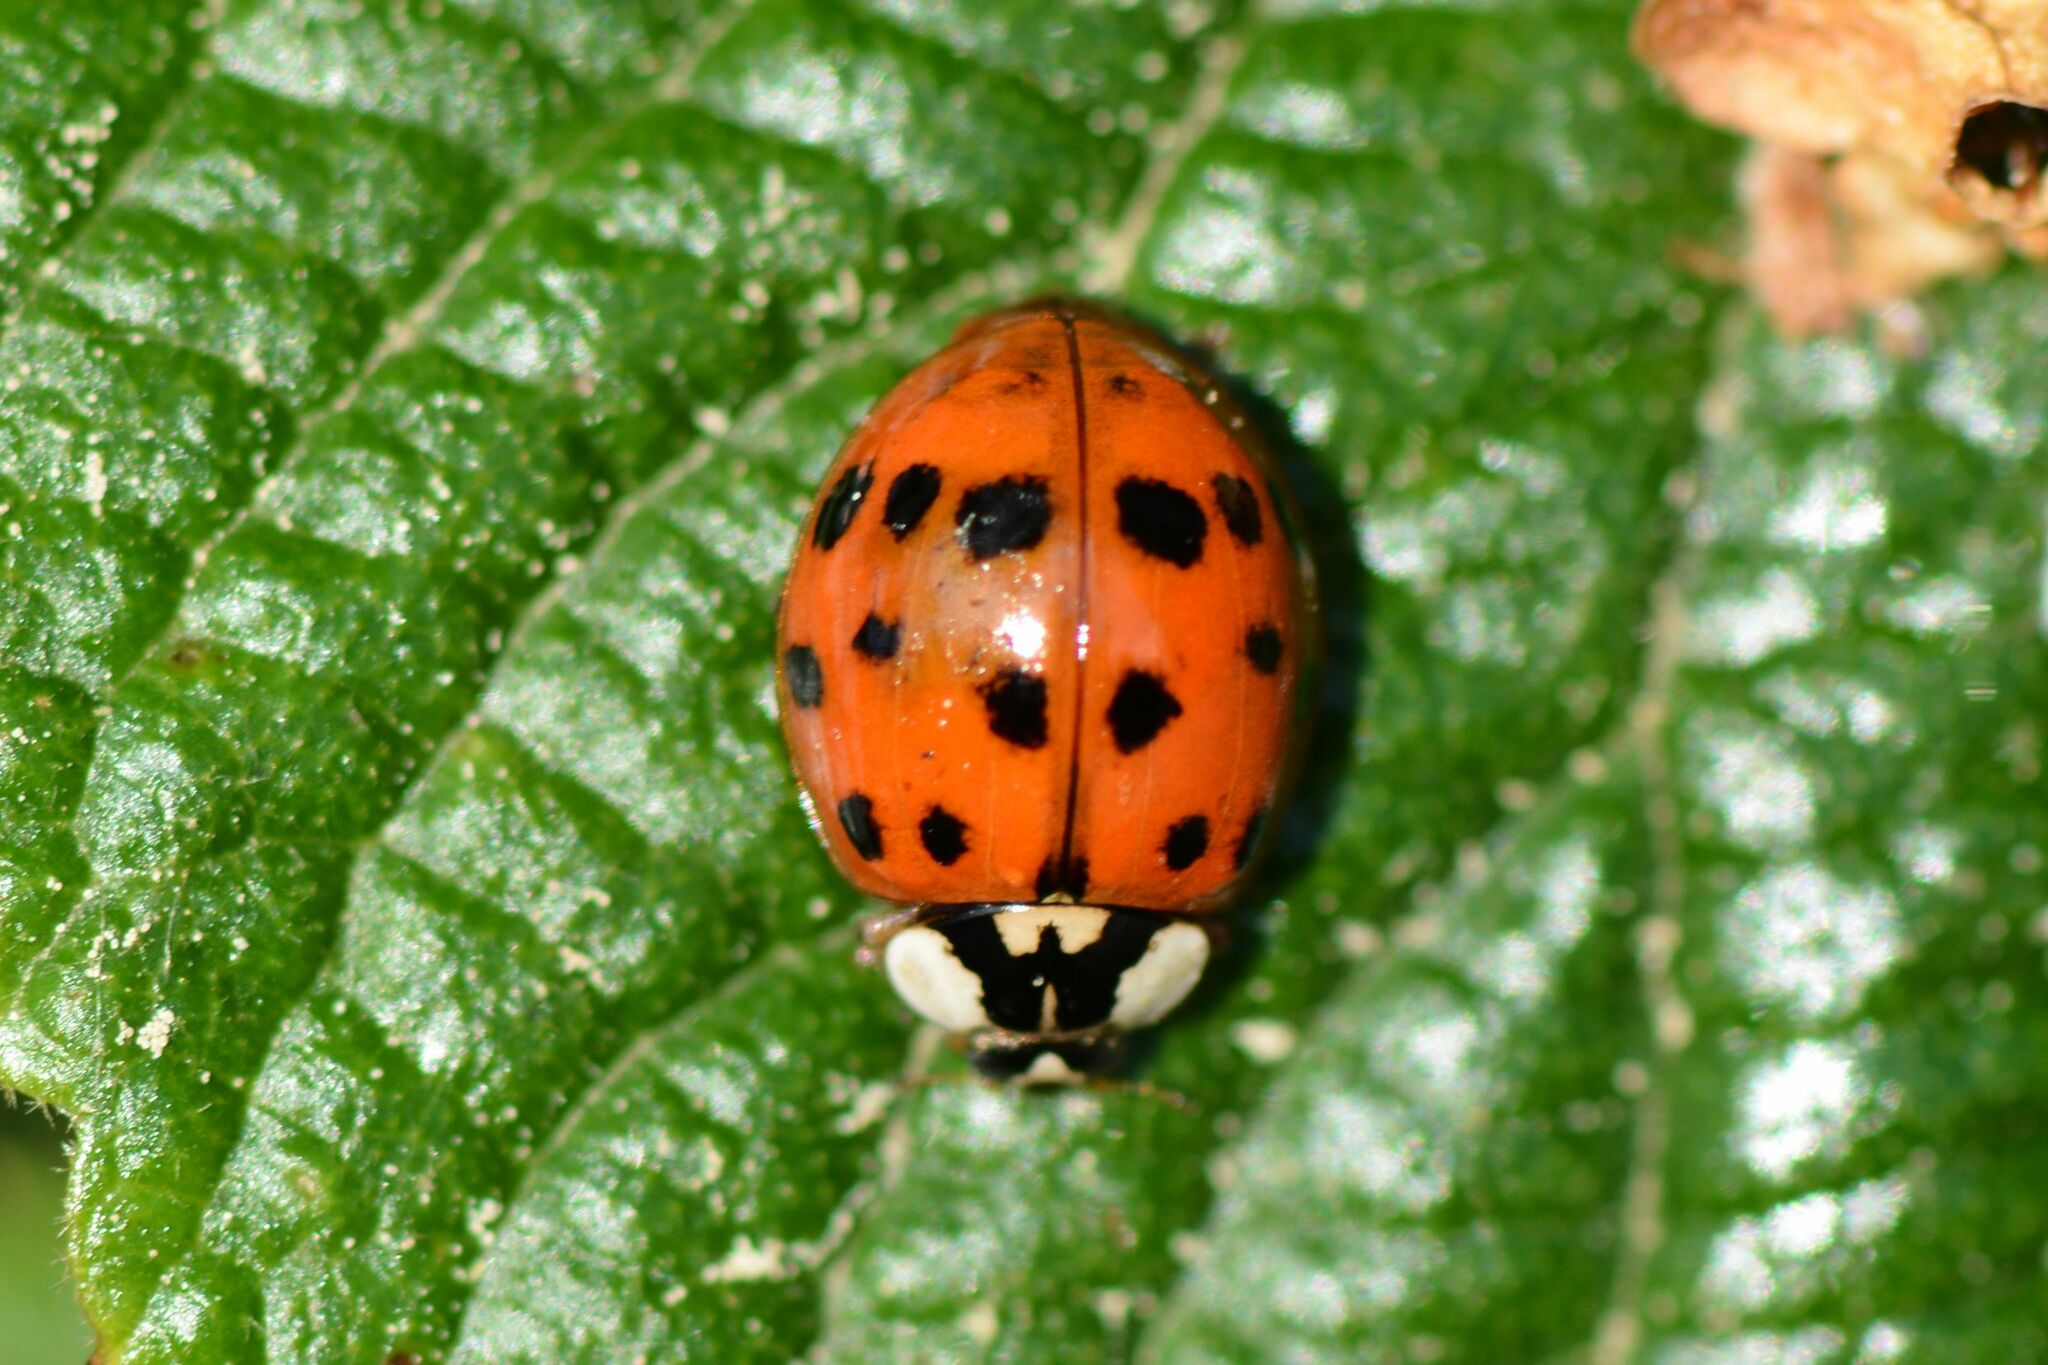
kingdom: Animalia
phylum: Arthropoda
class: Insecta
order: Coleoptera
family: Coccinellidae
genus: Harmonia
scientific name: Harmonia axyridis
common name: Harlequin ladybird
